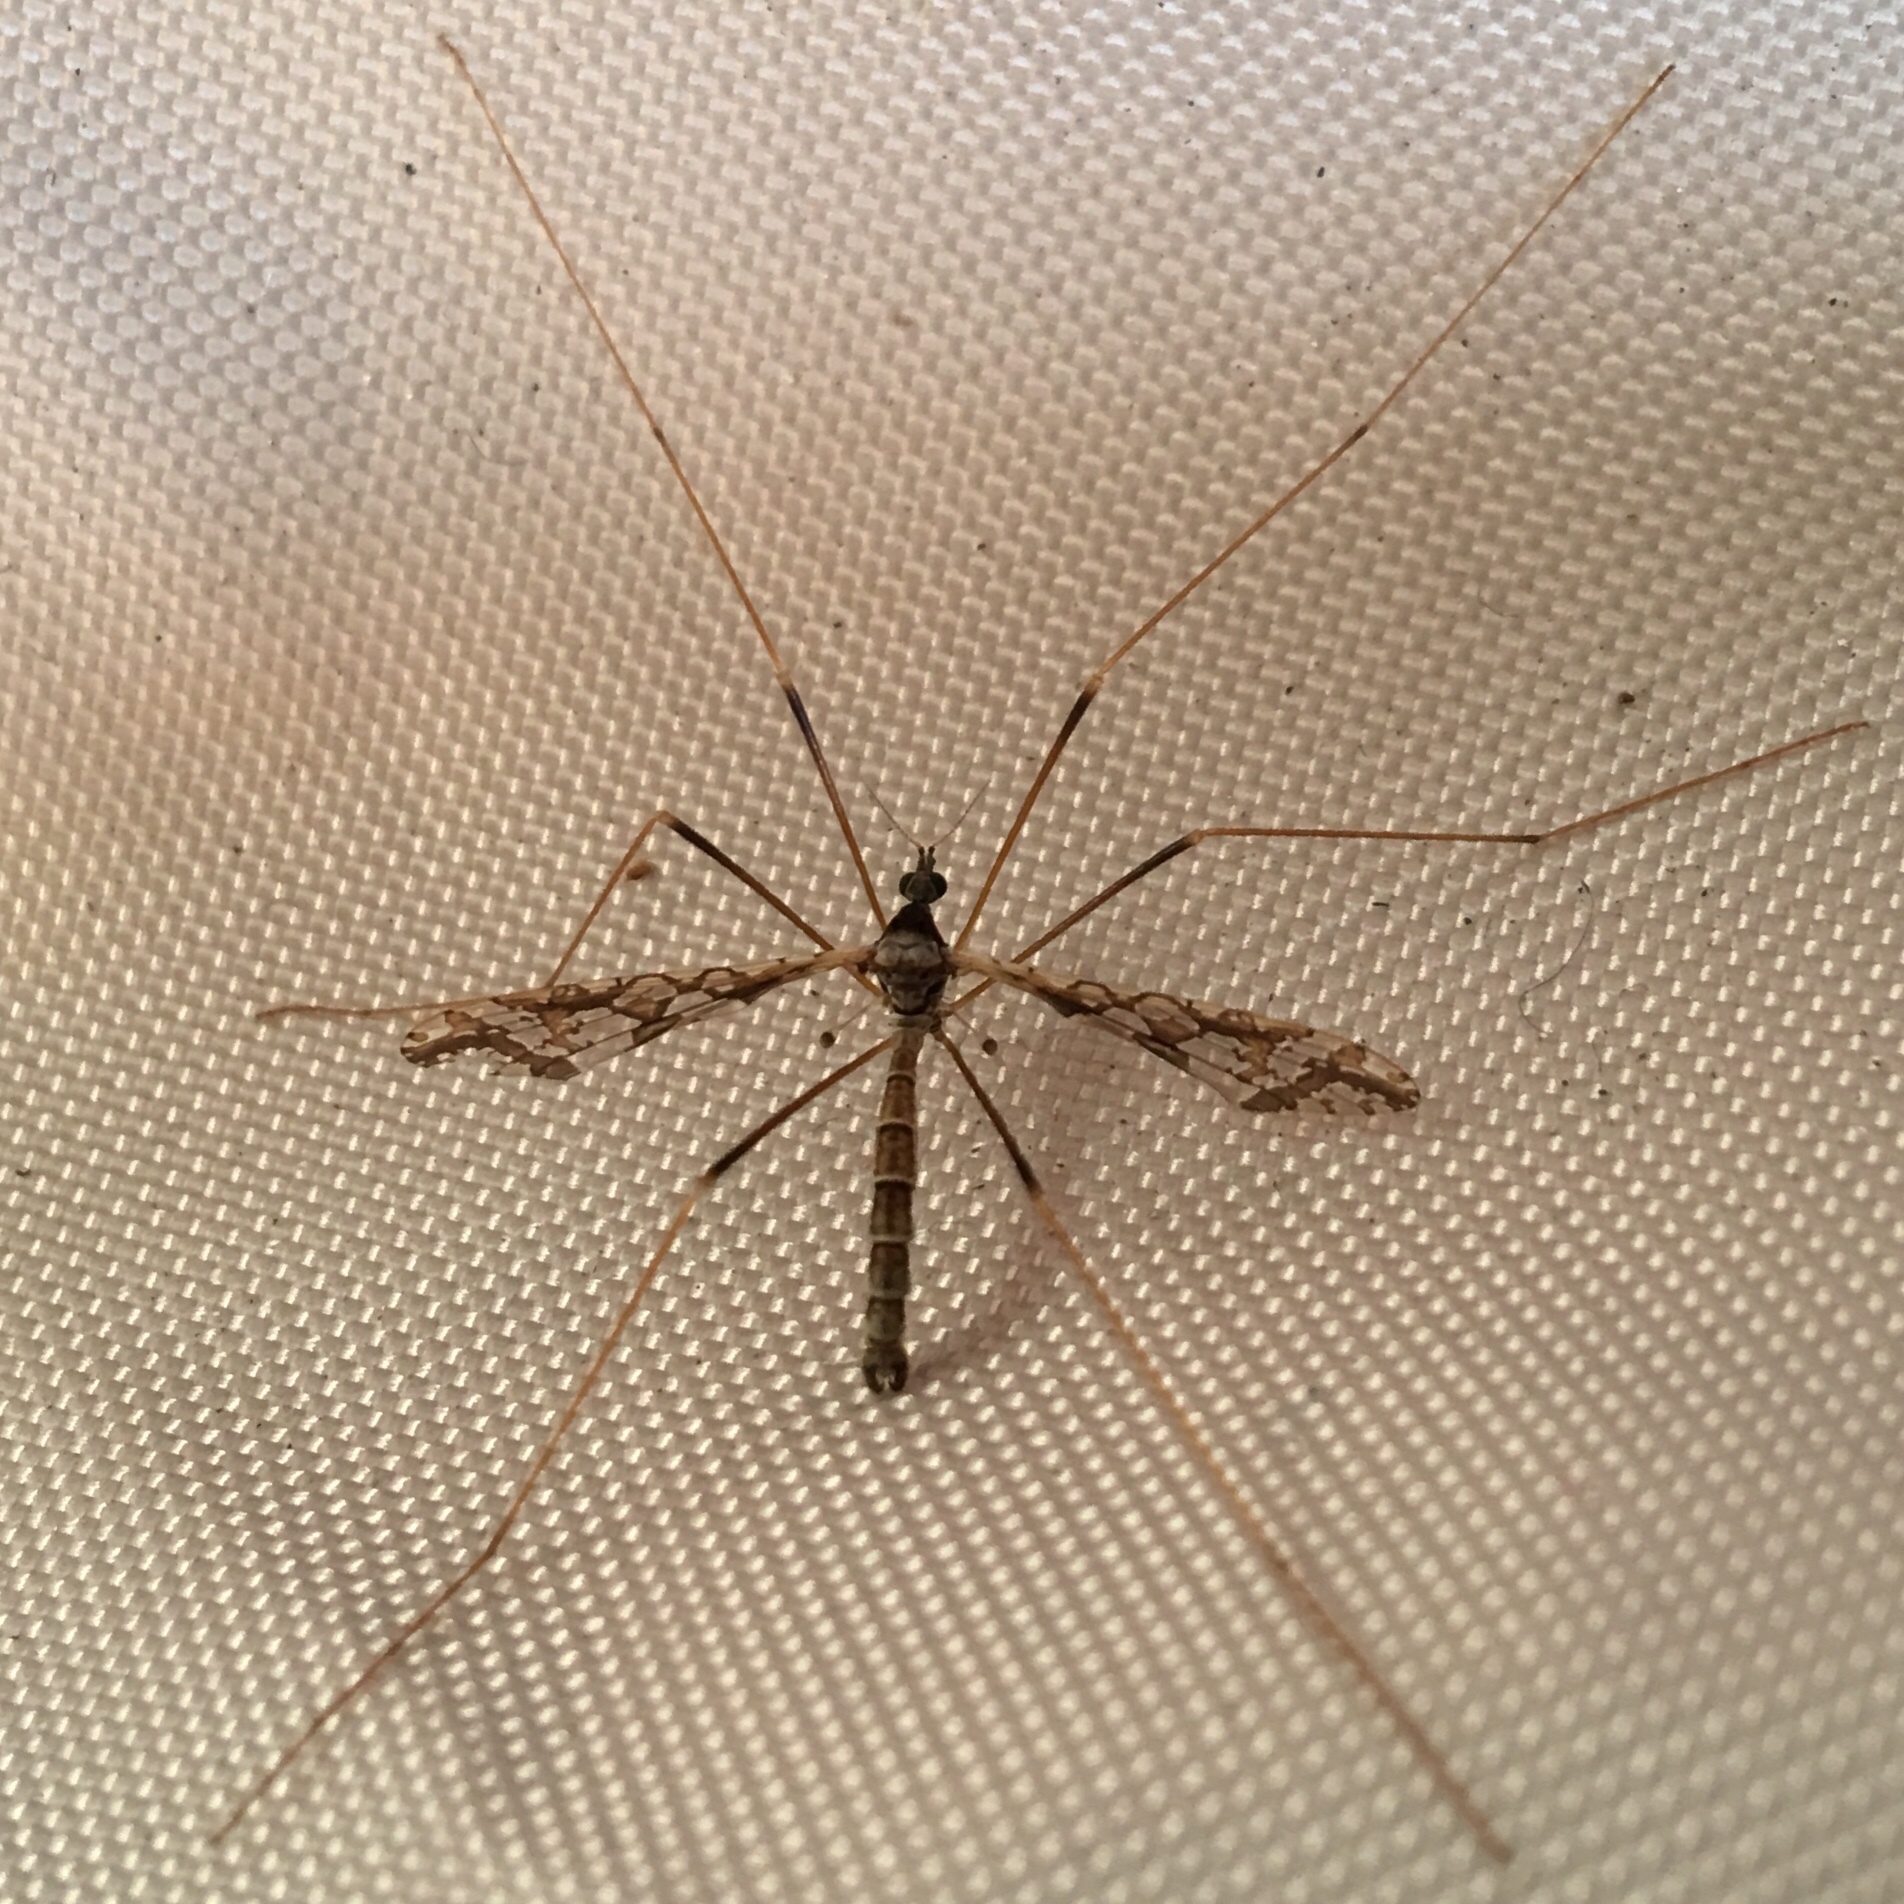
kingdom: Animalia
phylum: Arthropoda
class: Insecta
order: Diptera
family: Limoniidae
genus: Epiphragma
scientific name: Epiphragma solatrix
